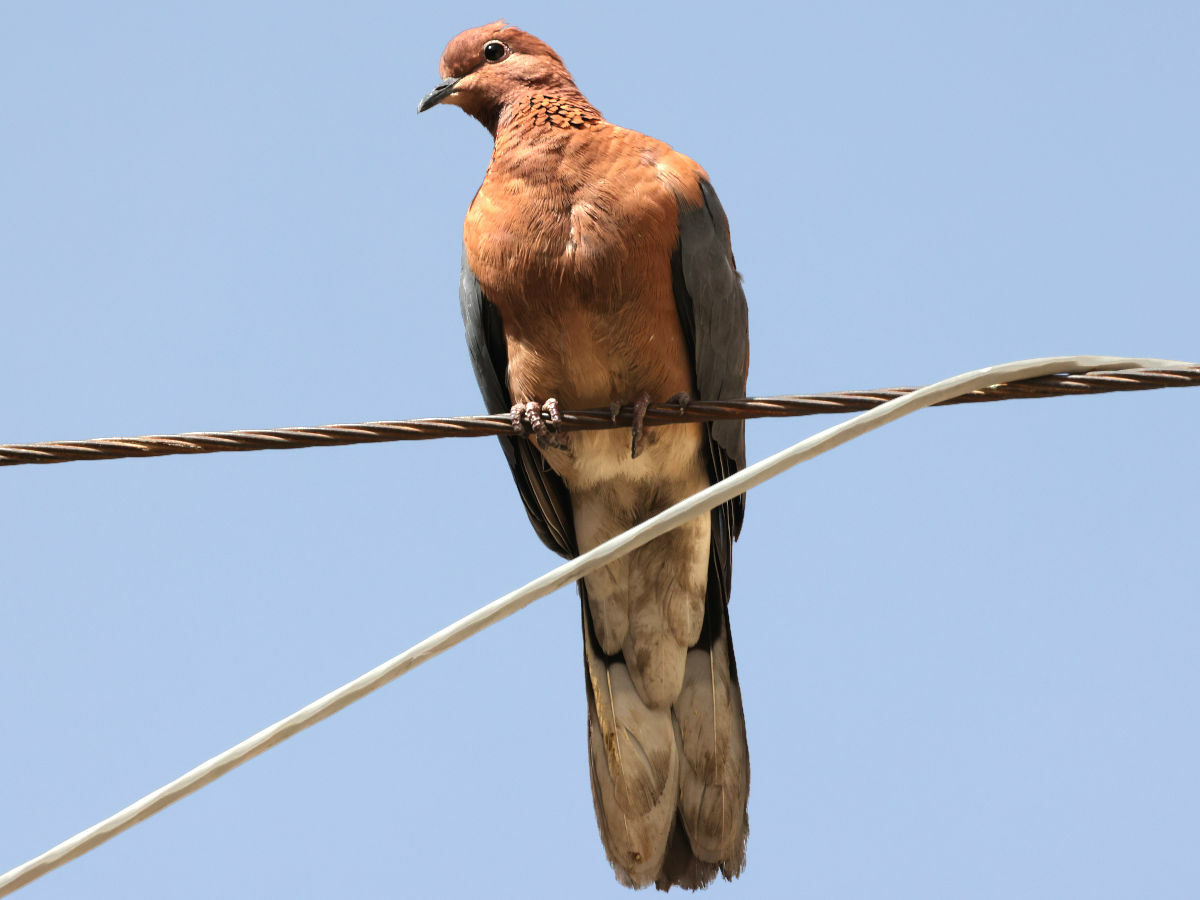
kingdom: Animalia
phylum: Chordata
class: Aves
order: Columbiformes
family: Columbidae
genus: Spilopelia
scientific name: Spilopelia senegalensis
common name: Laughing dove
